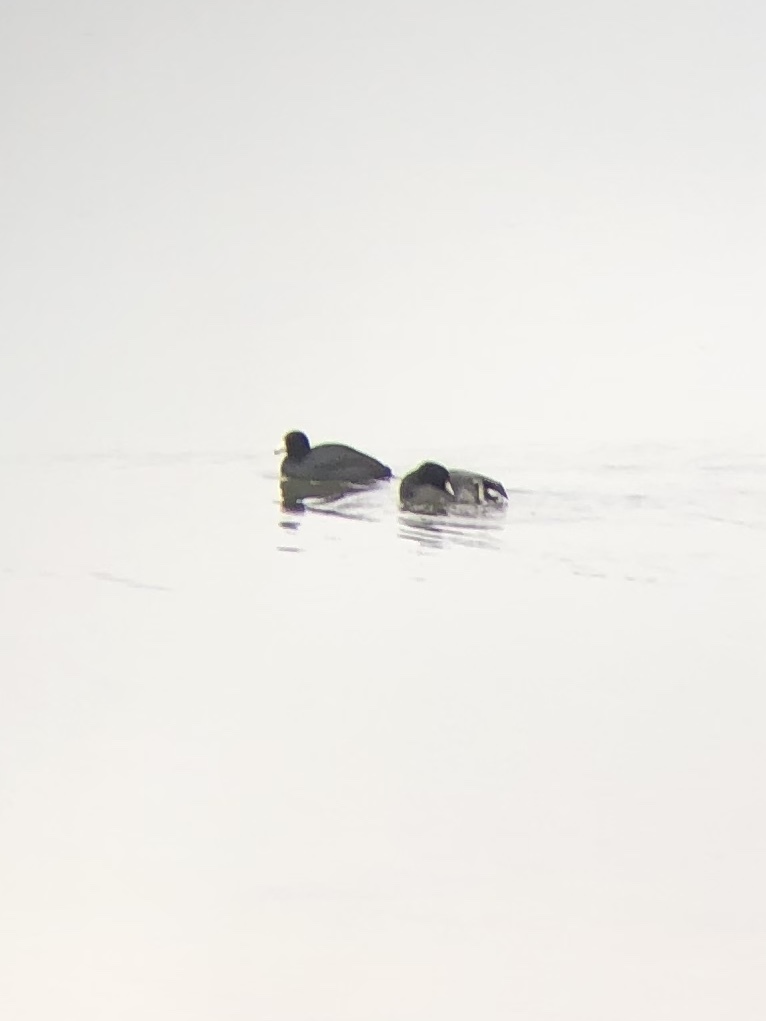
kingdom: Animalia
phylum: Chordata
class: Aves
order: Gruiformes
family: Rallidae
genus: Fulica
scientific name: Fulica americana
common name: American coot
